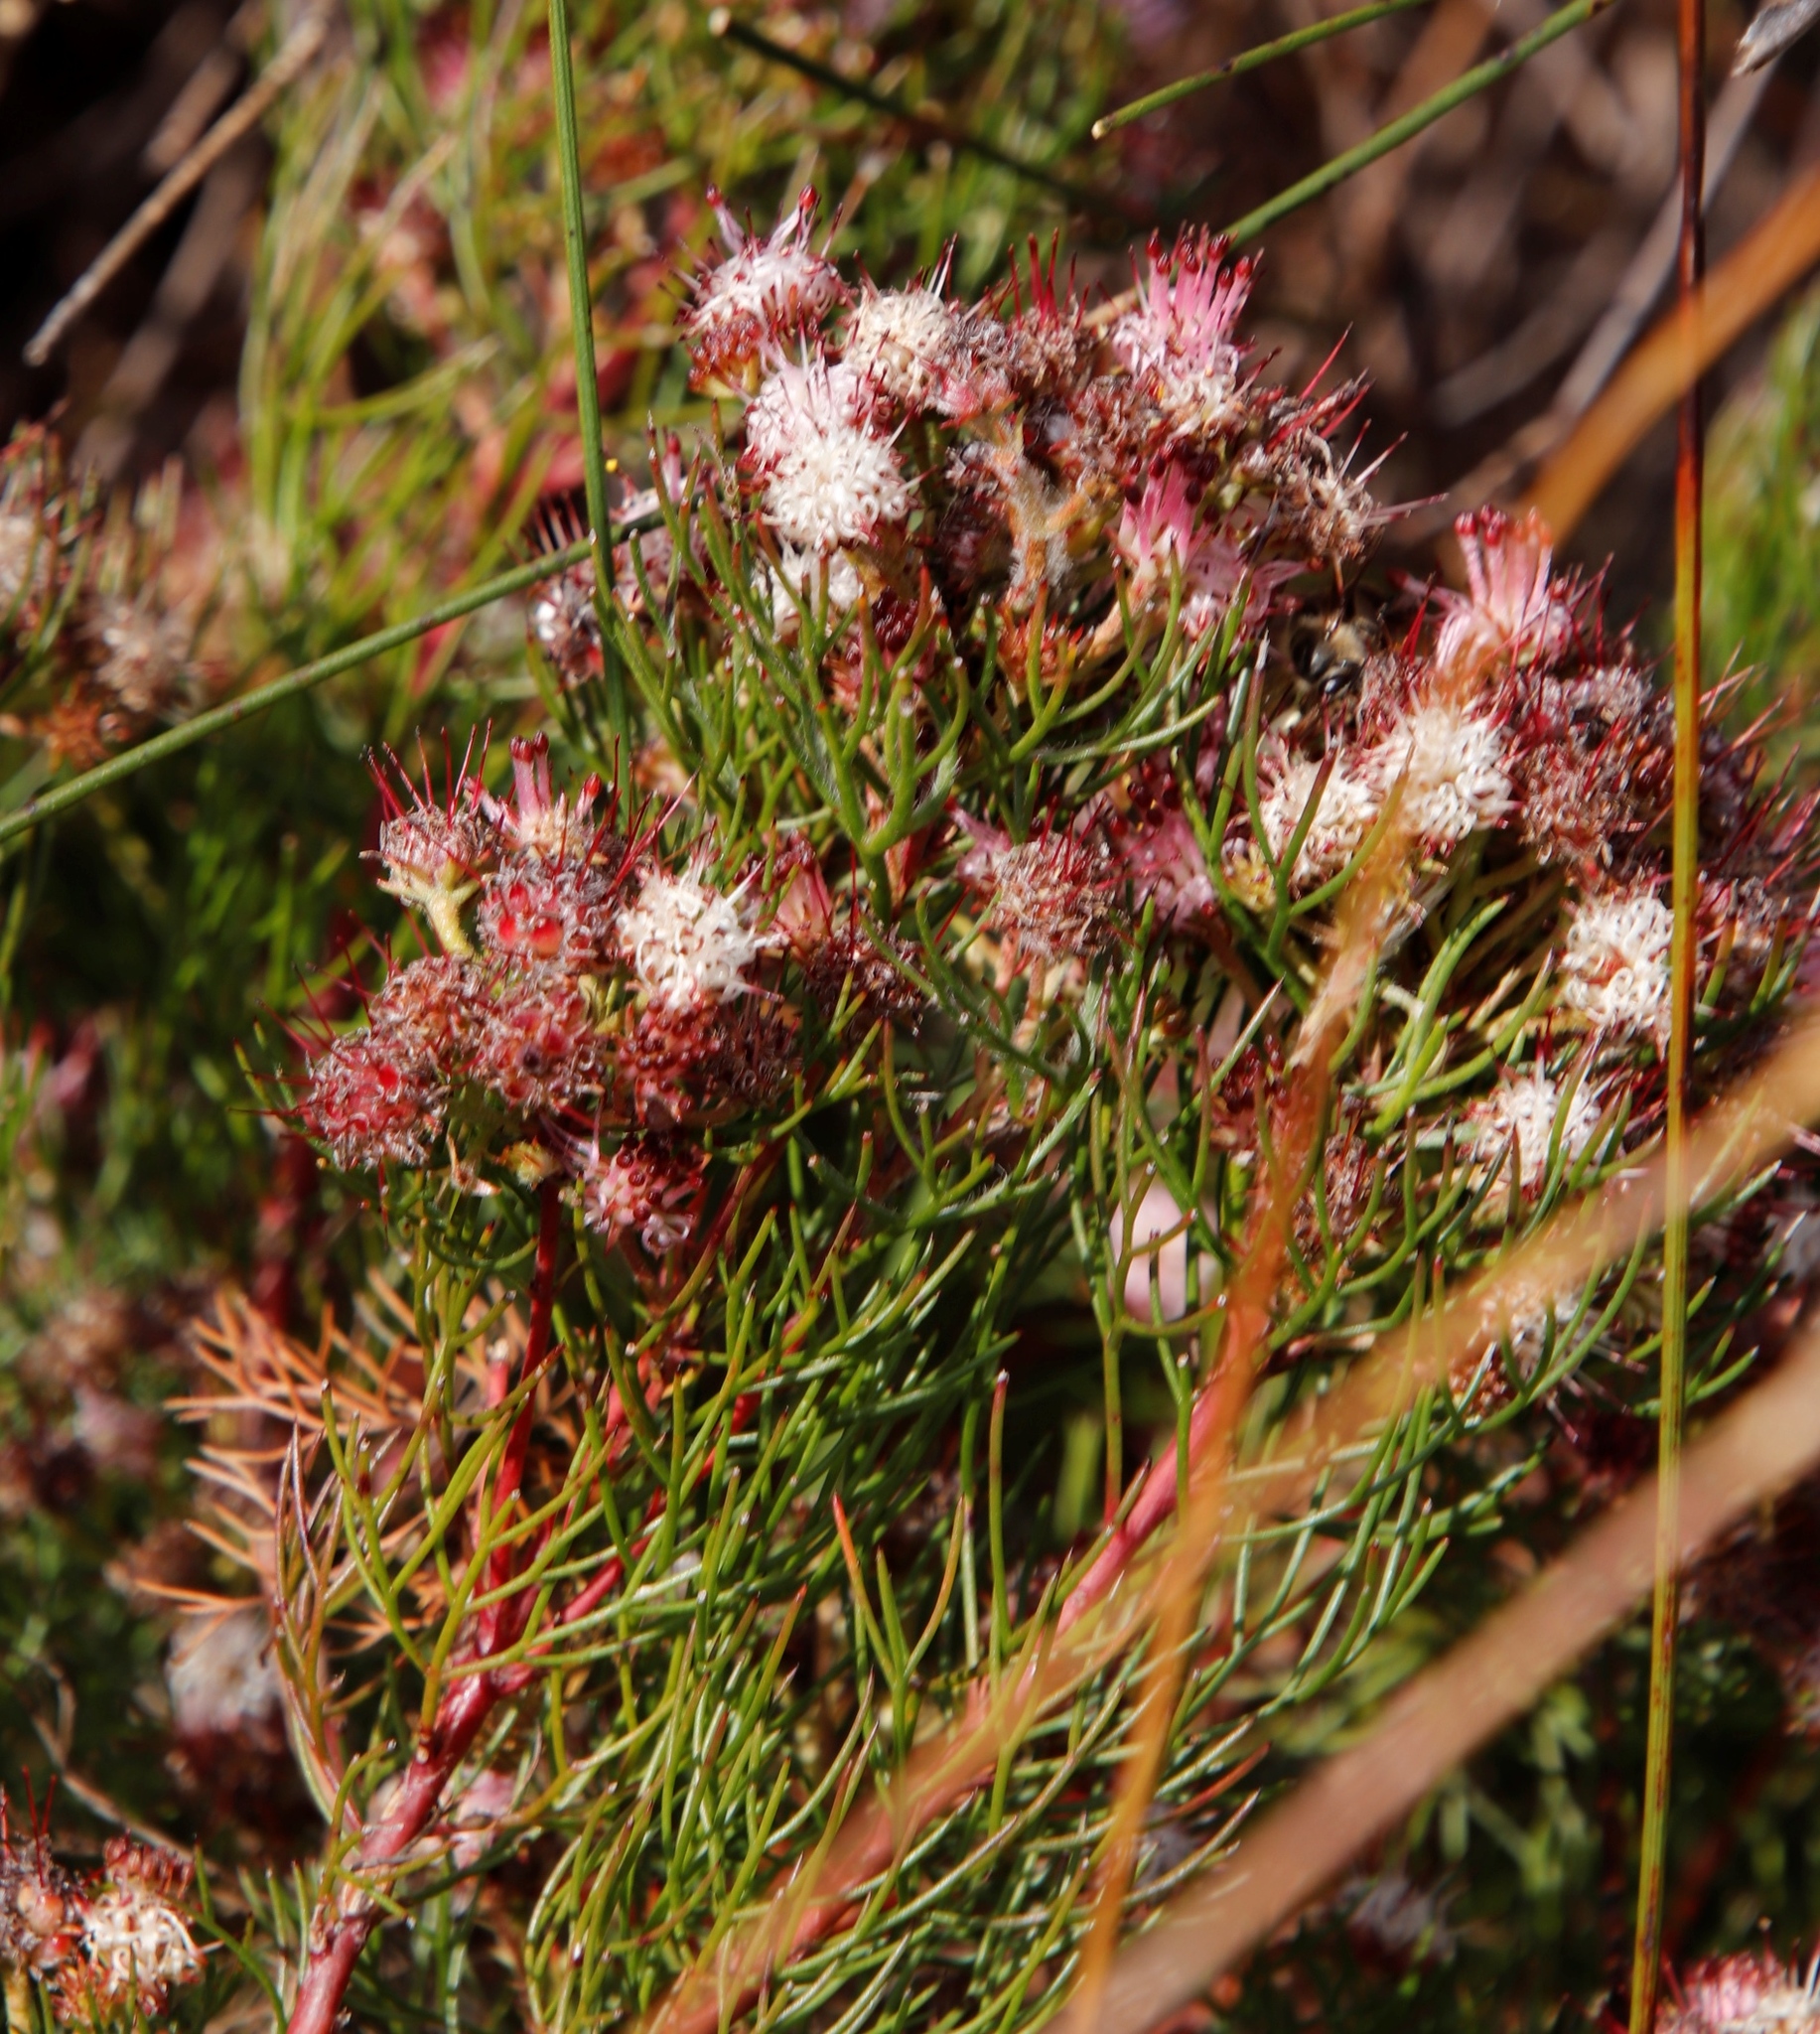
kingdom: Plantae
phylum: Tracheophyta
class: Magnoliopsida
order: Proteales
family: Proteaceae
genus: Serruria
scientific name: Serruria fasciflora
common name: Common pin spiderhead
